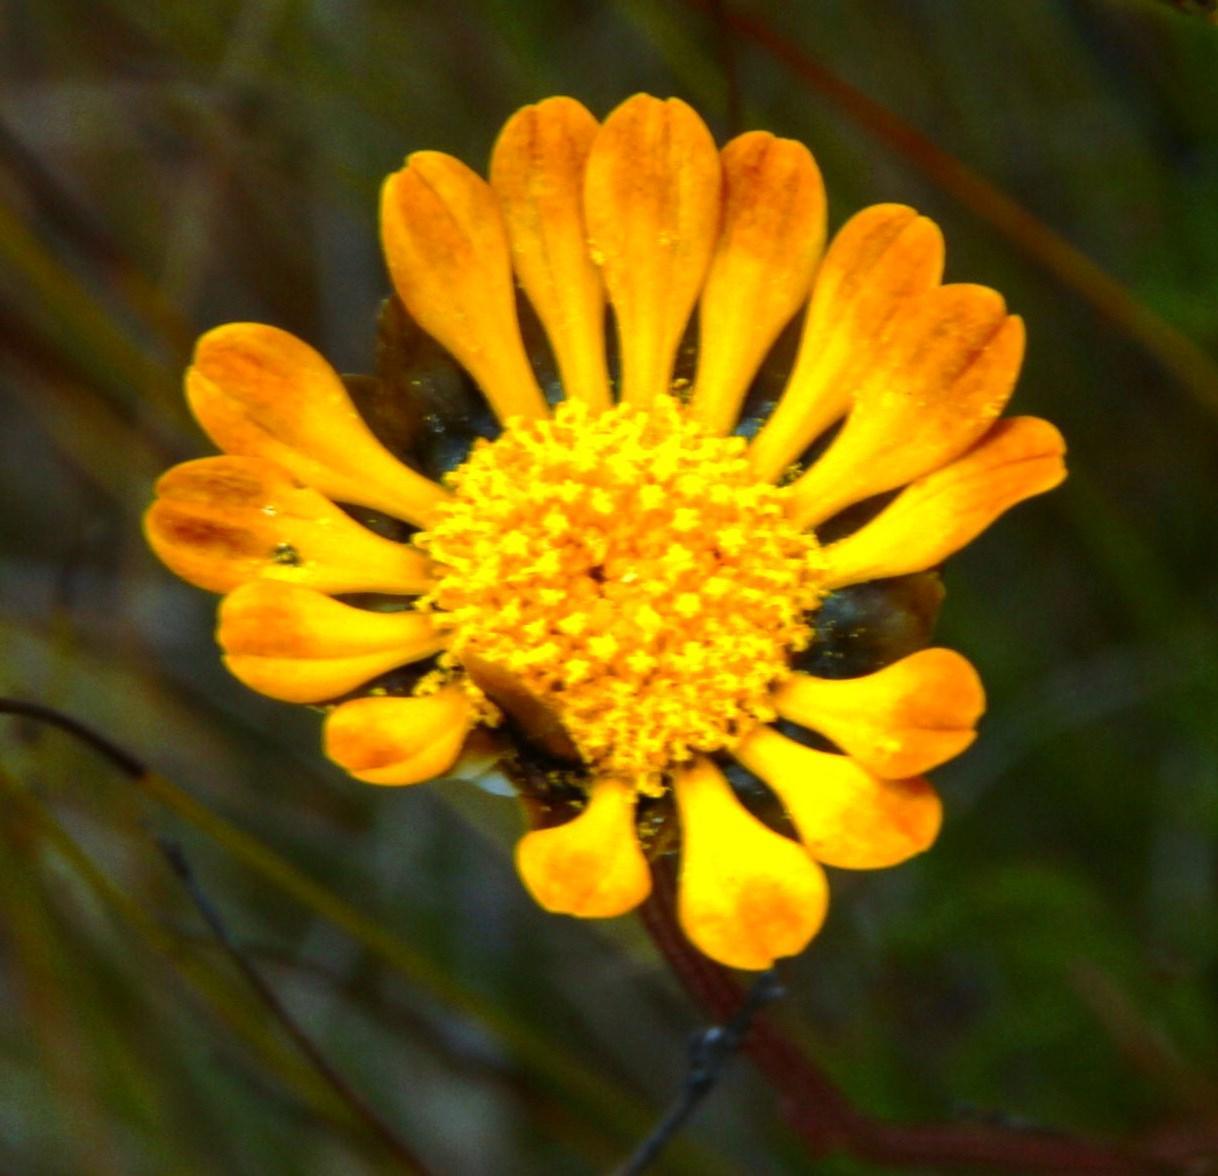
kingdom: Plantae
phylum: Tracheophyta
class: Magnoliopsida
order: Asterales
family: Asteraceae
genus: Ursinia
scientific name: Ursinia paleacea
